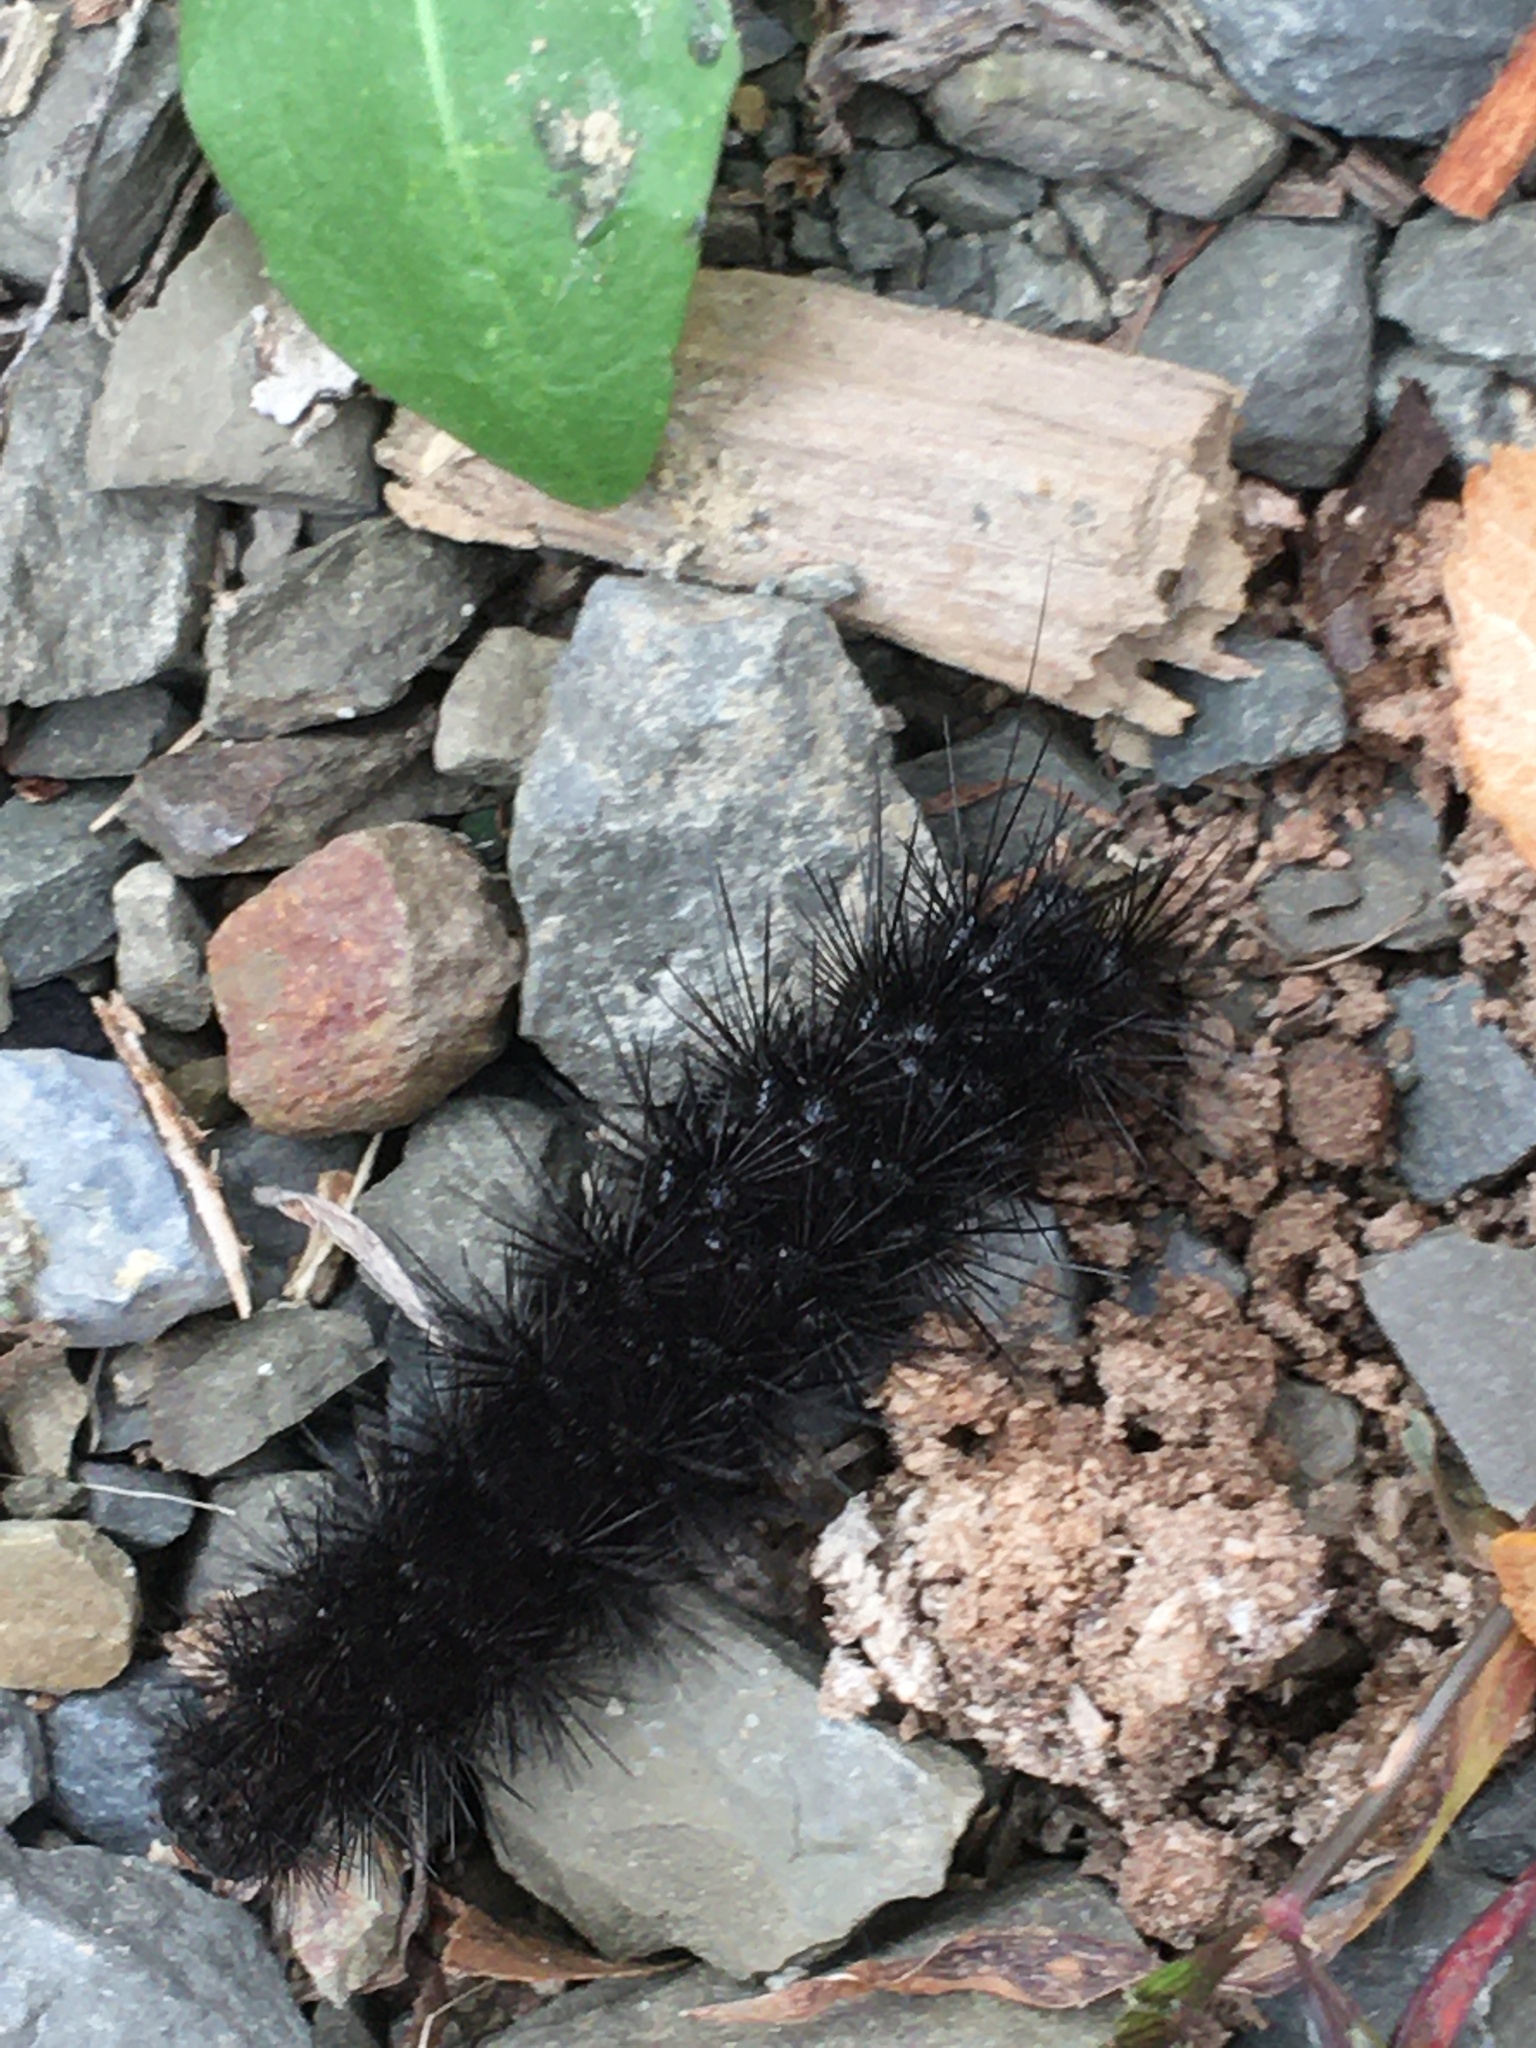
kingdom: Animalia
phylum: Arthropoda
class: Insecta
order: Lepidoptera
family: Erebidae
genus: Hypercompe
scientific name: Hypercompe scribonia
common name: Giant leopard moth
